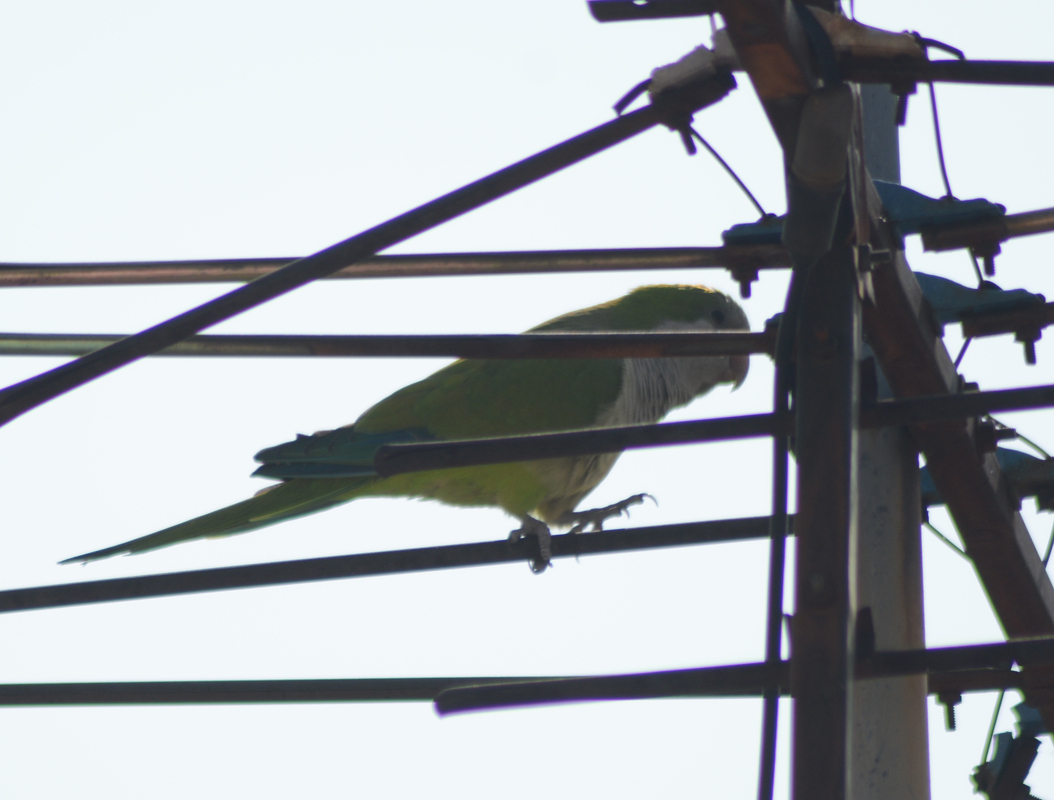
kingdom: Animalia
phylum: Chordata
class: Aves
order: Psittaciformes
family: Psittacidae
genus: Myiopsitta
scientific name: Myiopsitta monachus
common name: Monk parakeet
